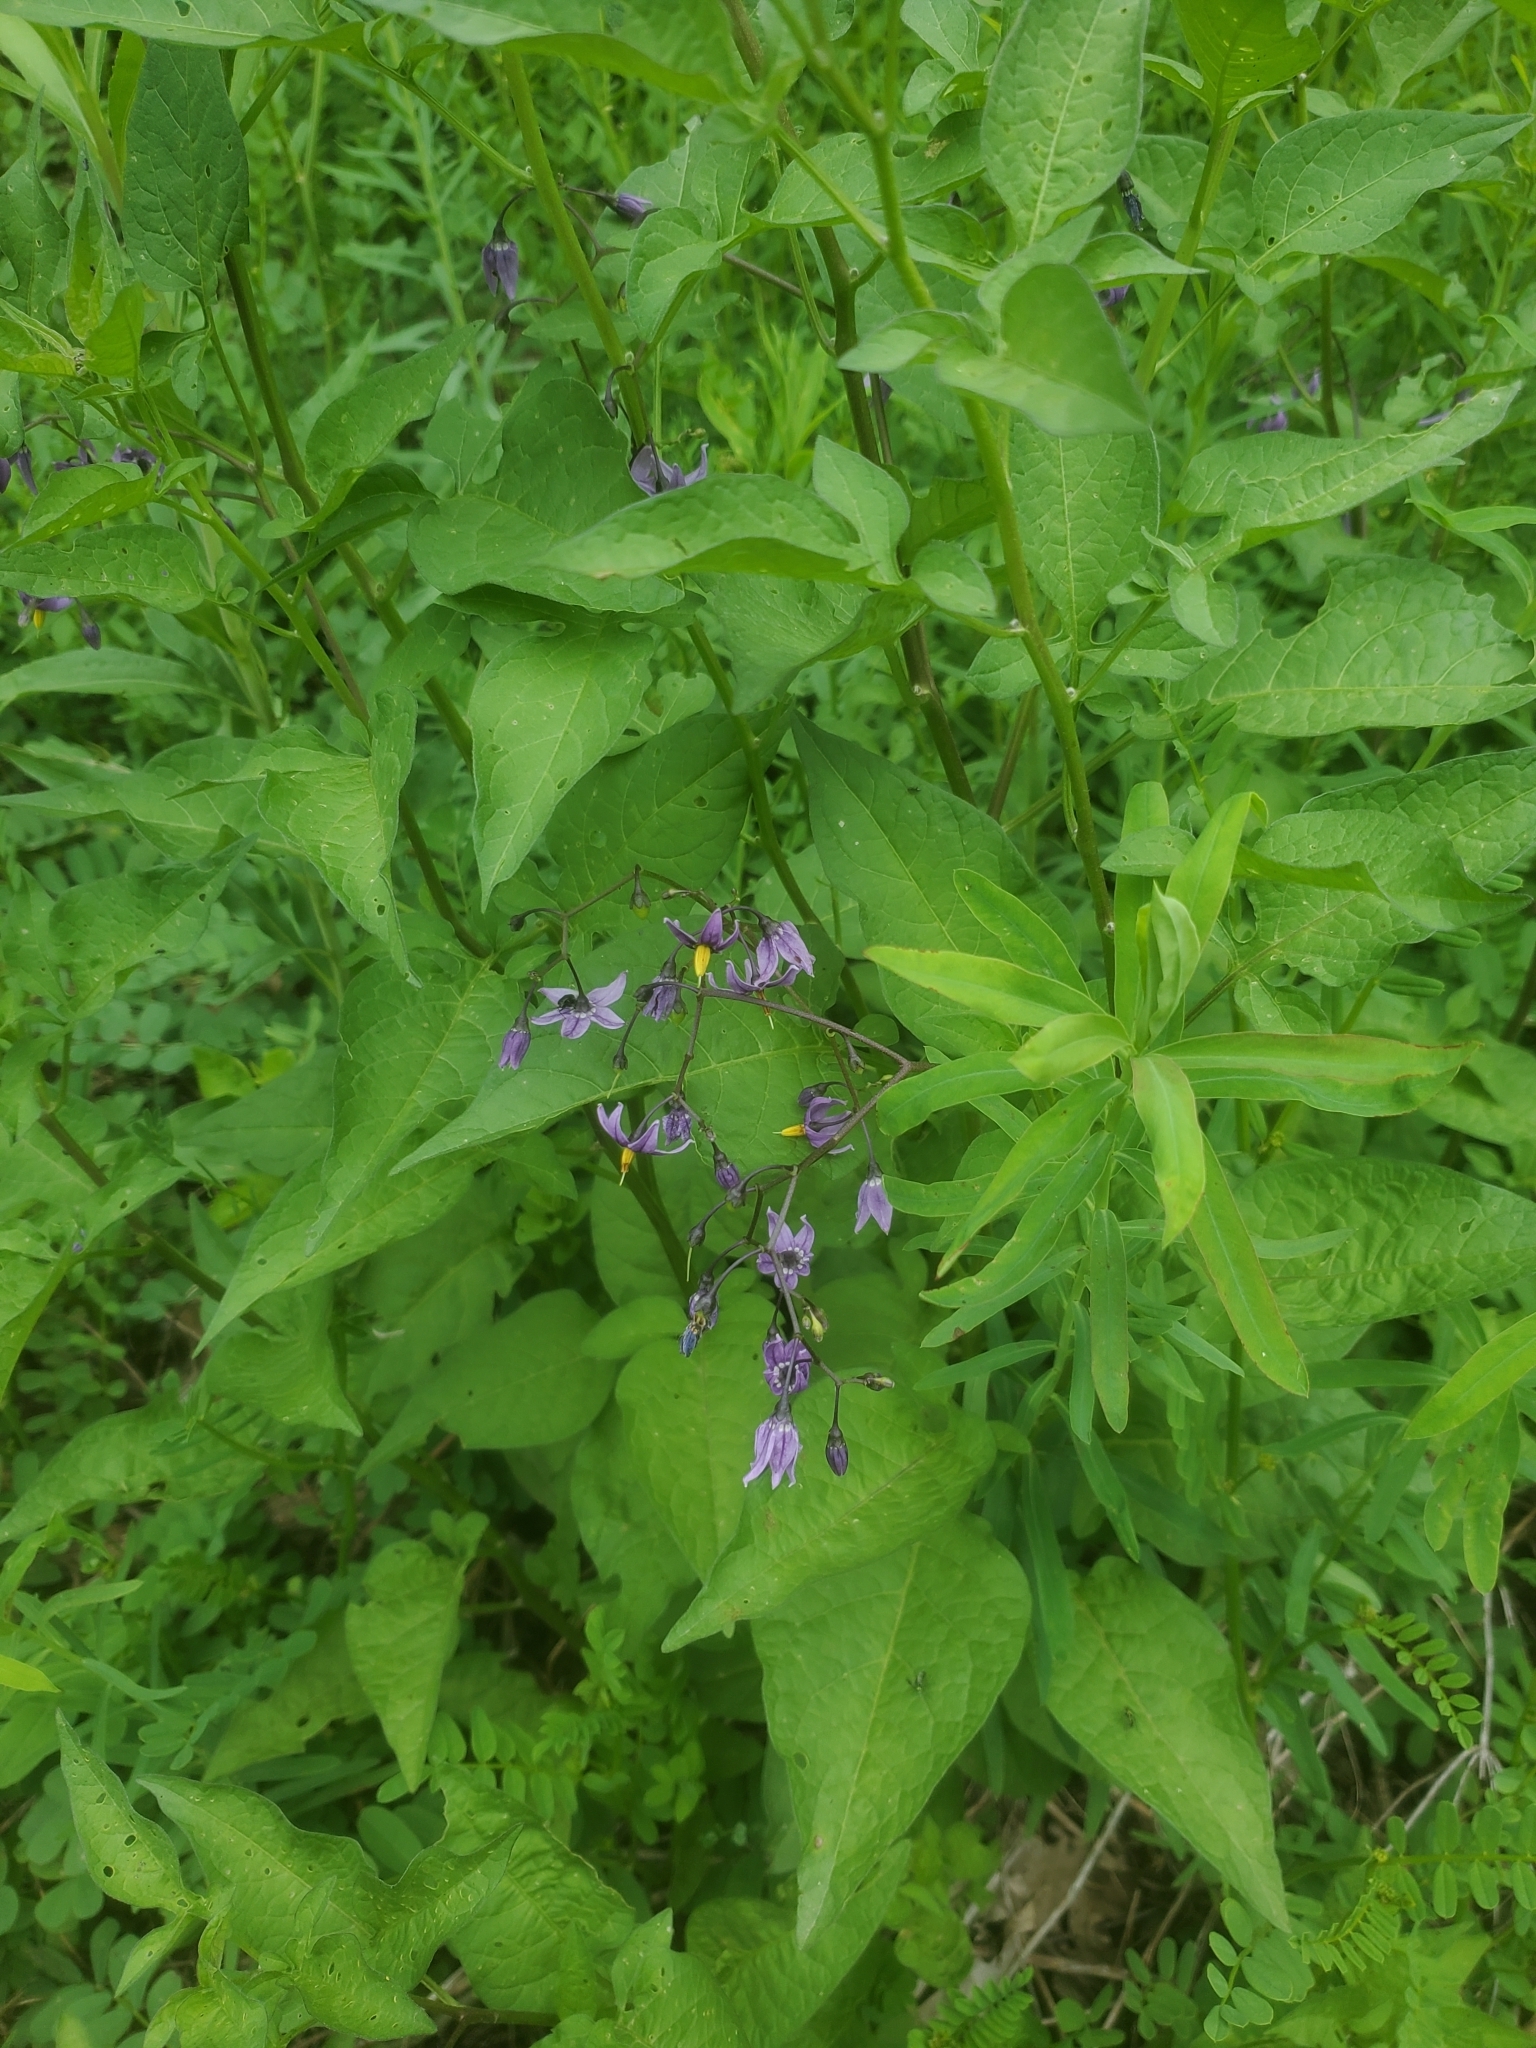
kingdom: Plantae
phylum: Tracheophyta
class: Magnoliopsida
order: Solanales
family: Solanaceae
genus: Solanum
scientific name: Solanum dulcamara
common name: Climbing nightshade
